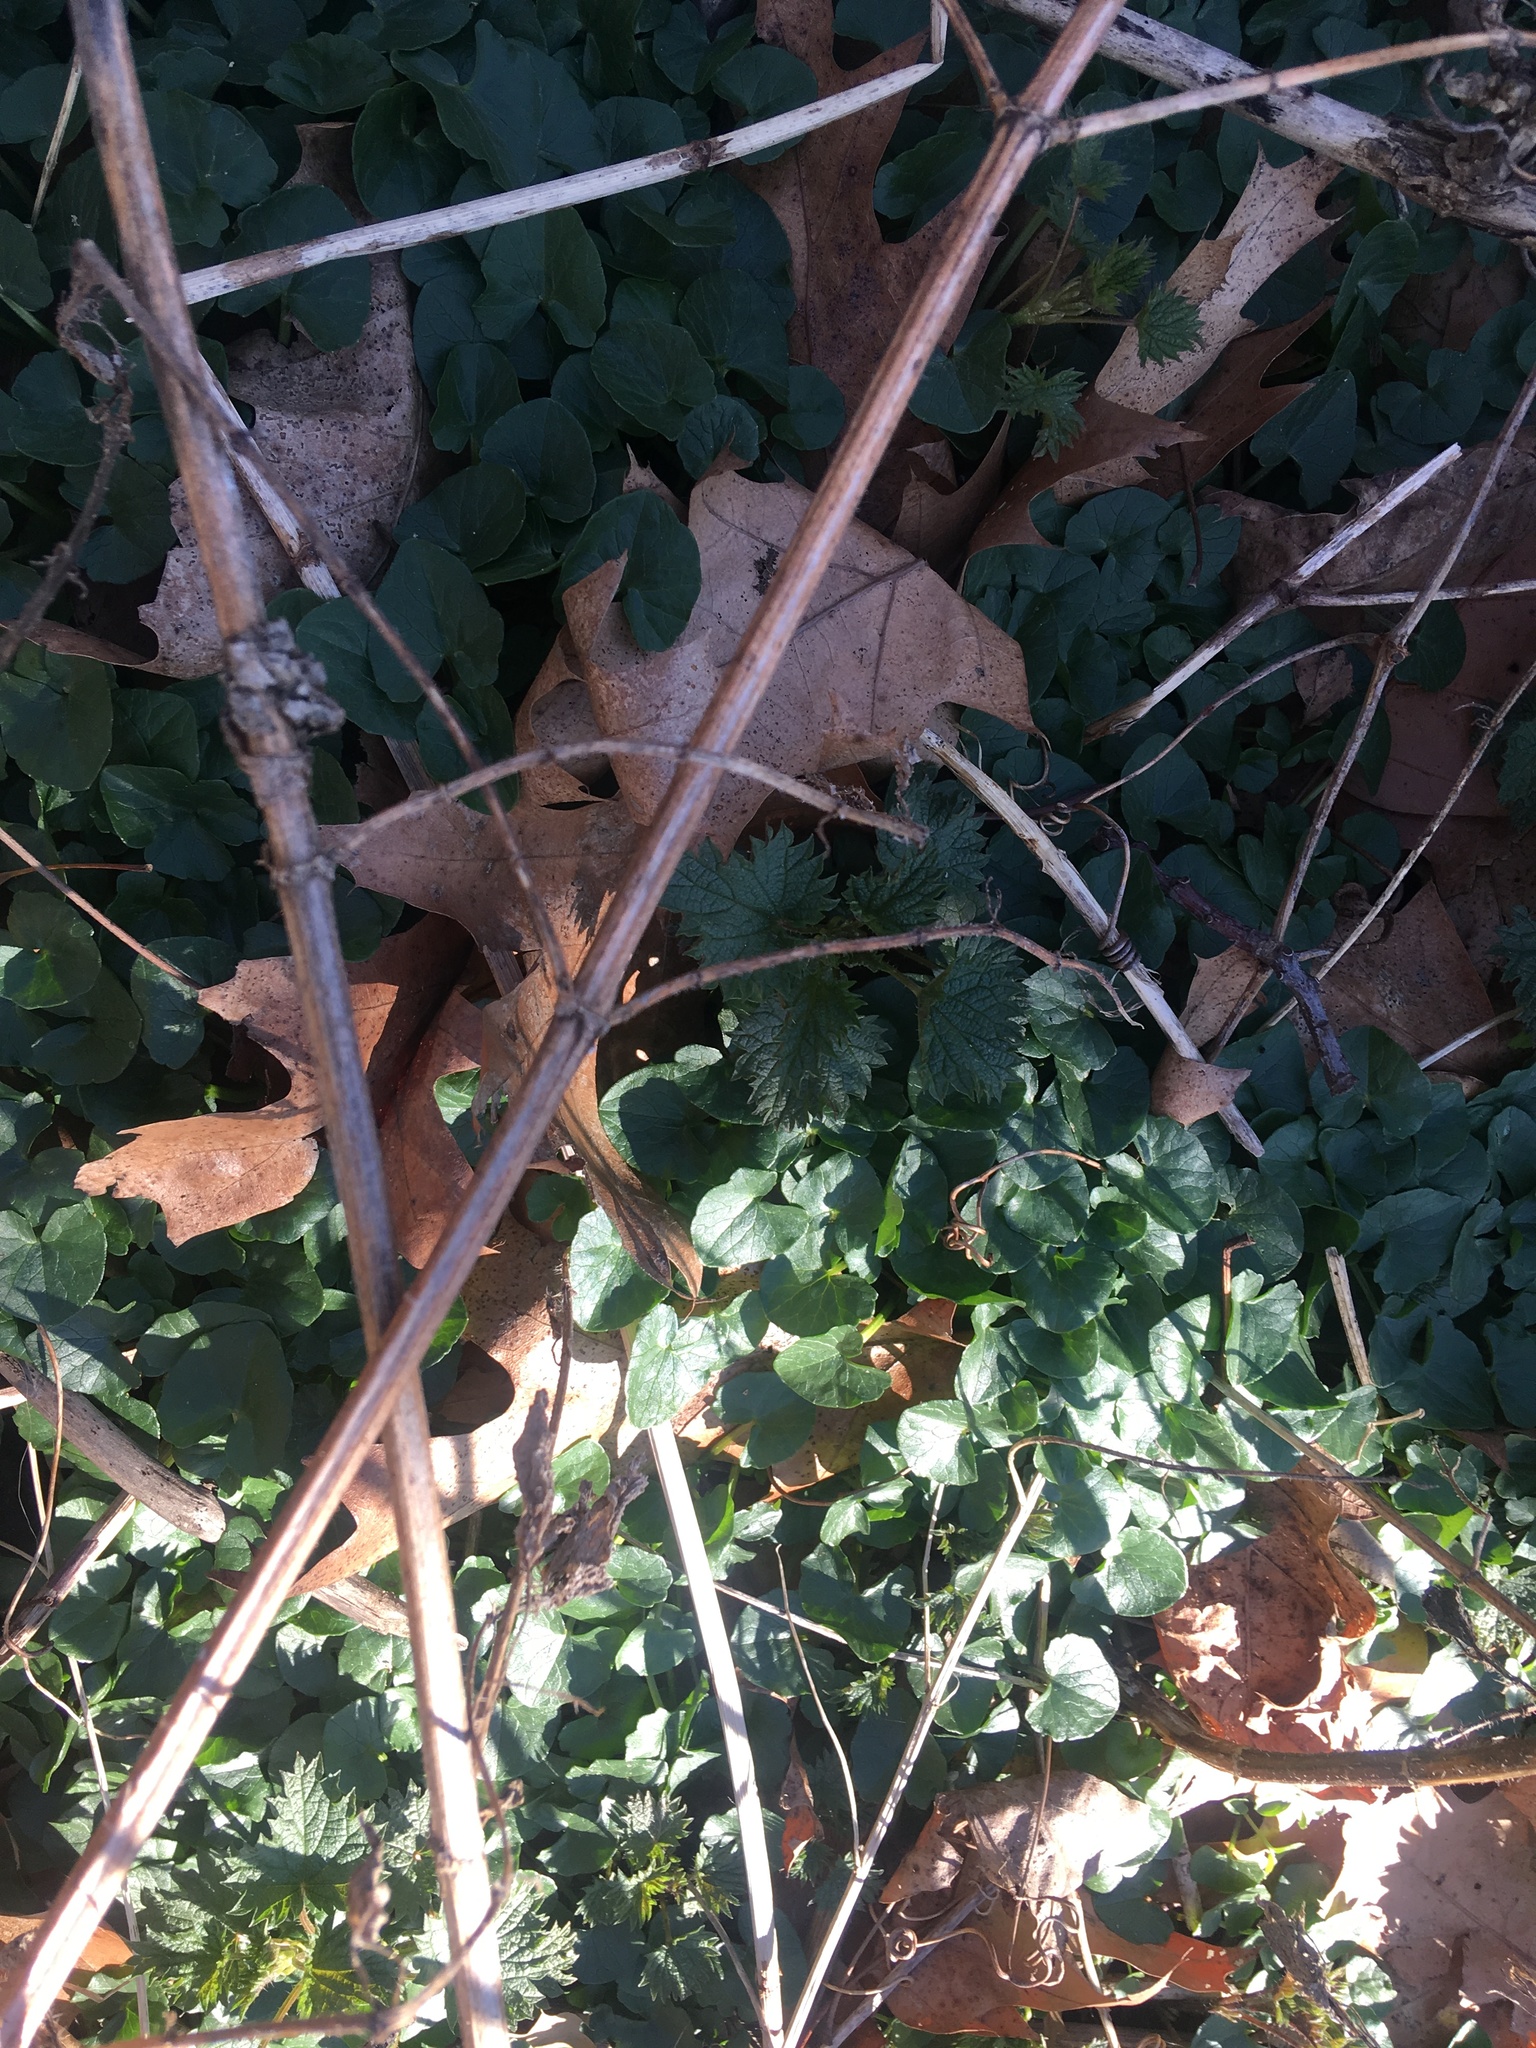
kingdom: Plantae
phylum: Tracheophyta
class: Magnoliopsida
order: Ranunculales
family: Ranunculaceae
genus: Ficaria
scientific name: Ficaria verna
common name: Lesser celandine
